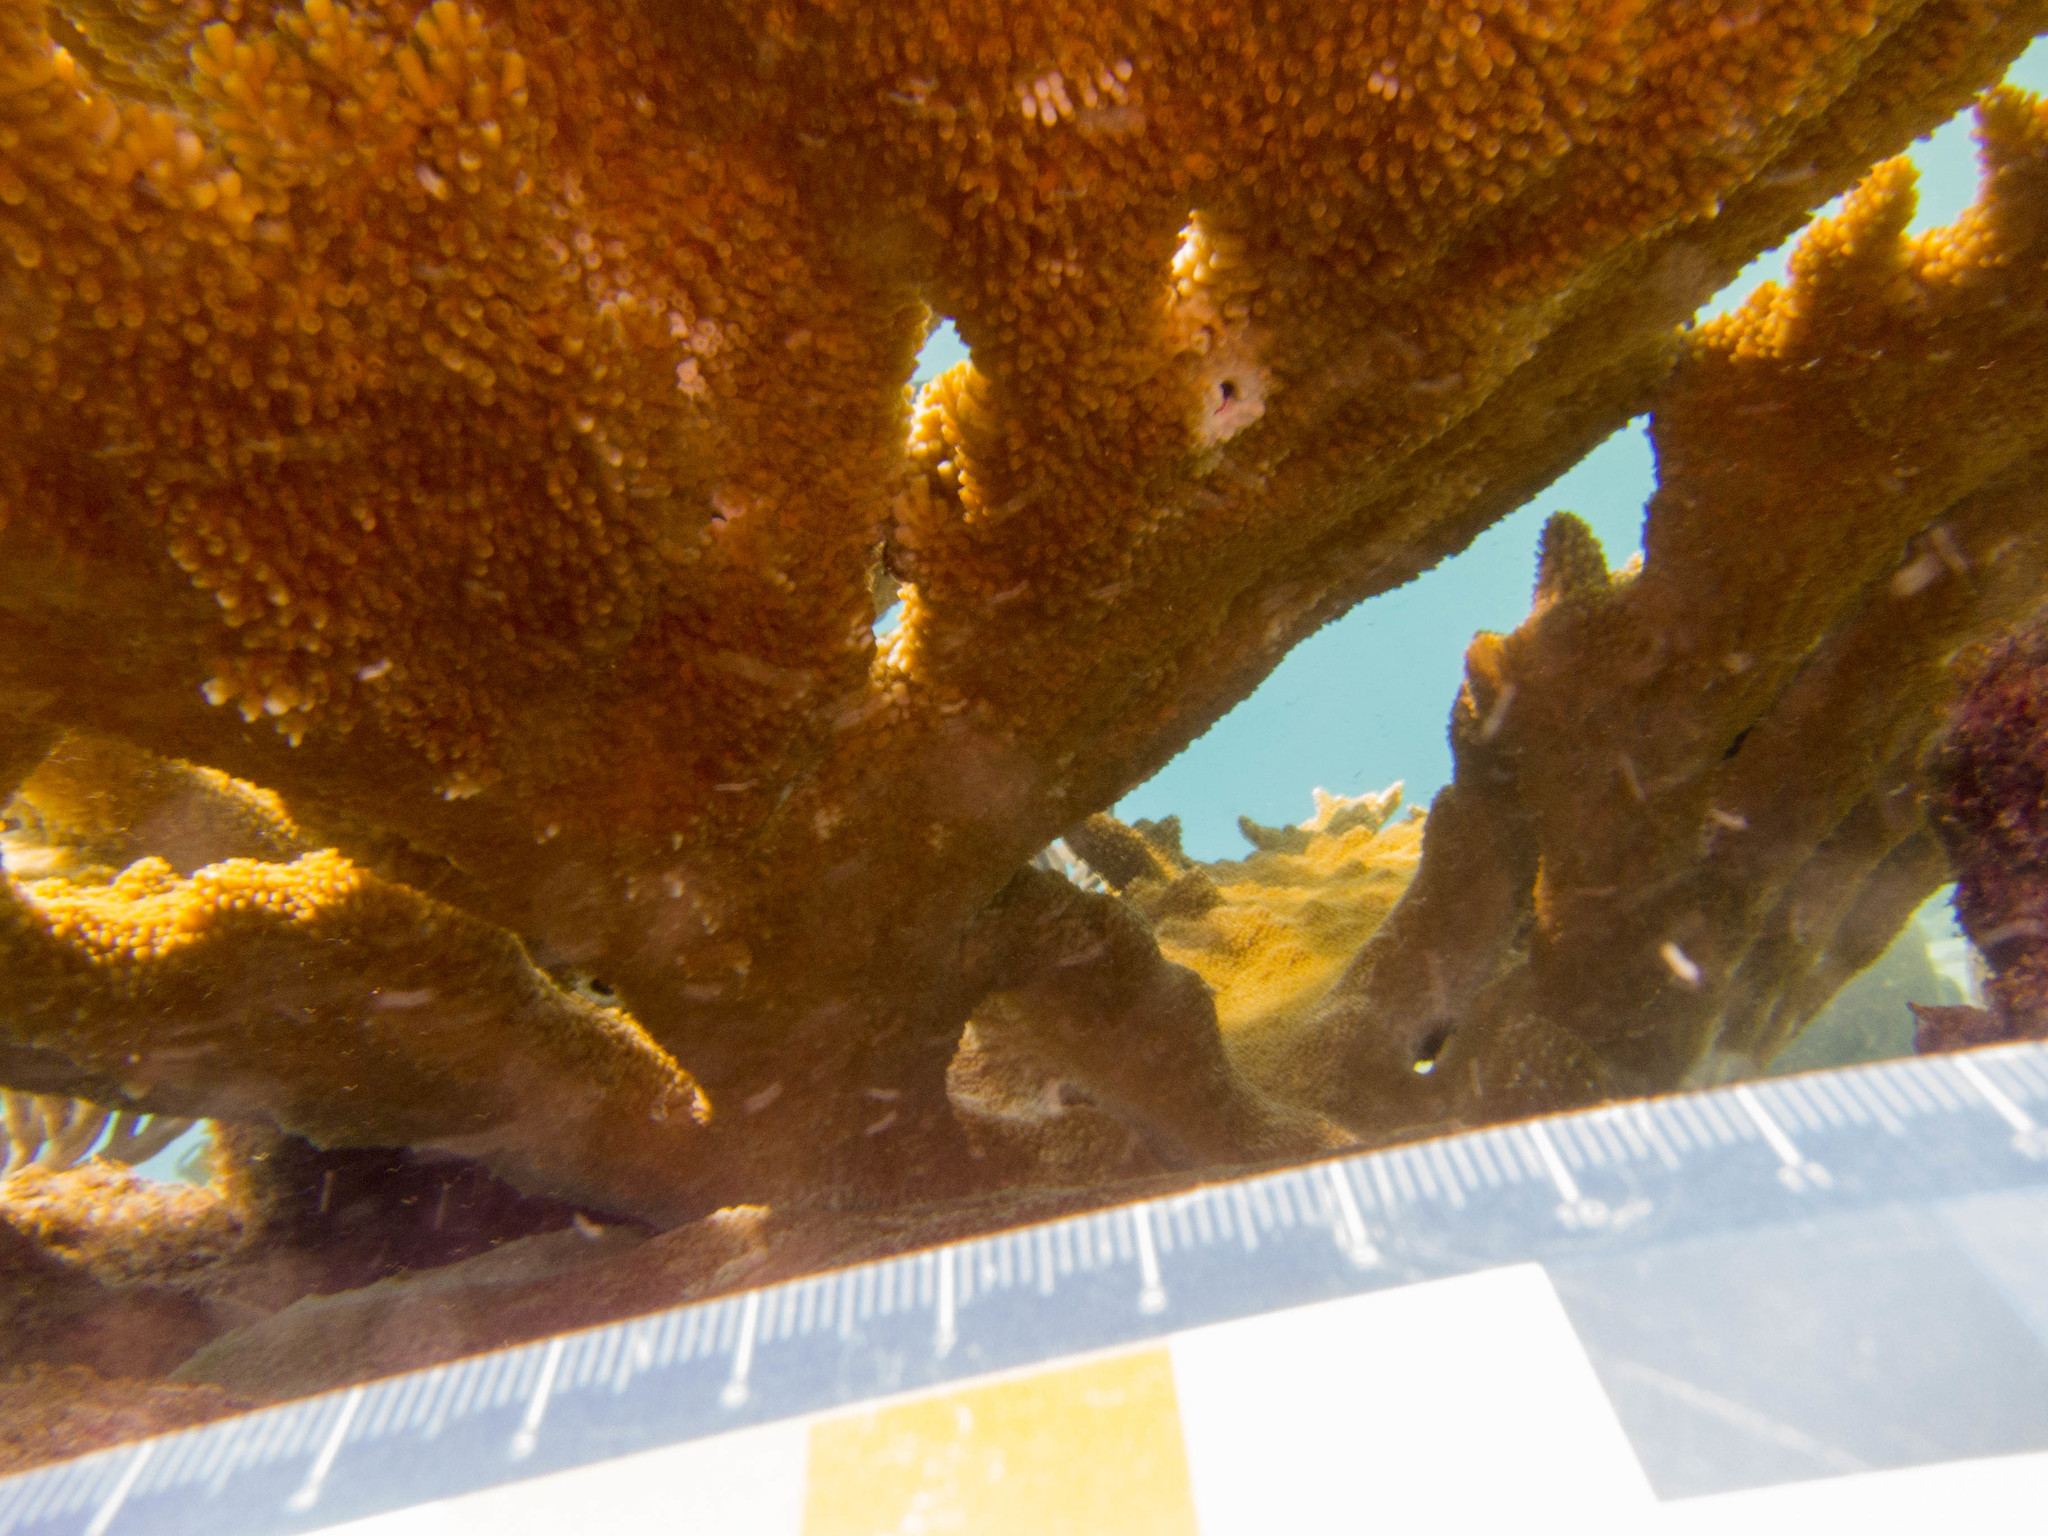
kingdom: Animalia
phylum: Cnidaria
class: Anthozoa
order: Scleractinia
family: Acroporidae
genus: Acropora
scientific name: Acropora palmata
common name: Elkhorn coral
